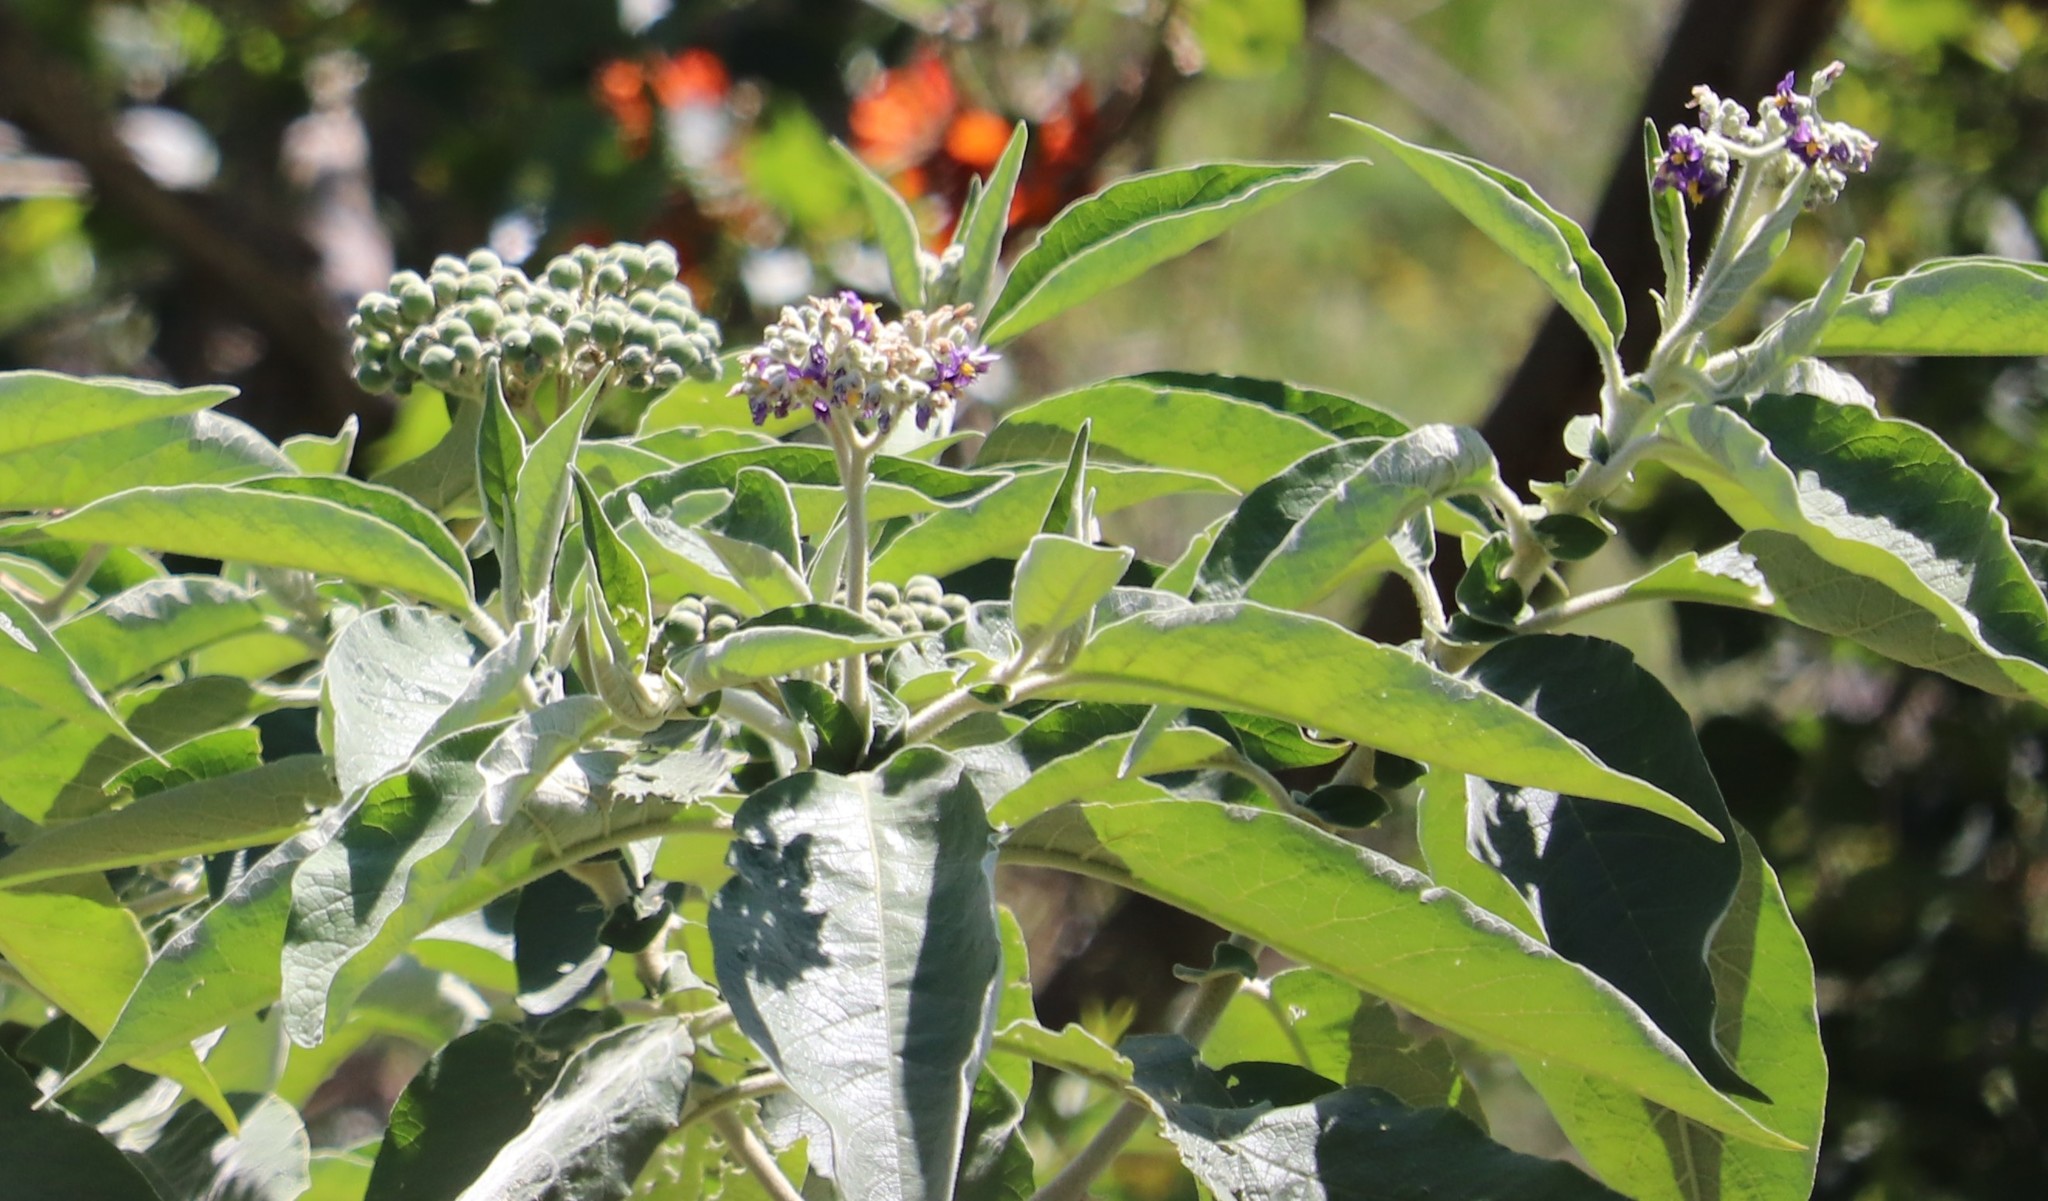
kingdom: Plantae
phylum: Tracheophyta
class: Magnoliopsida
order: Solanales
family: Solanaceae
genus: Solanum
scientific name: Solanum mauritianum
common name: Earleaf nightshade
